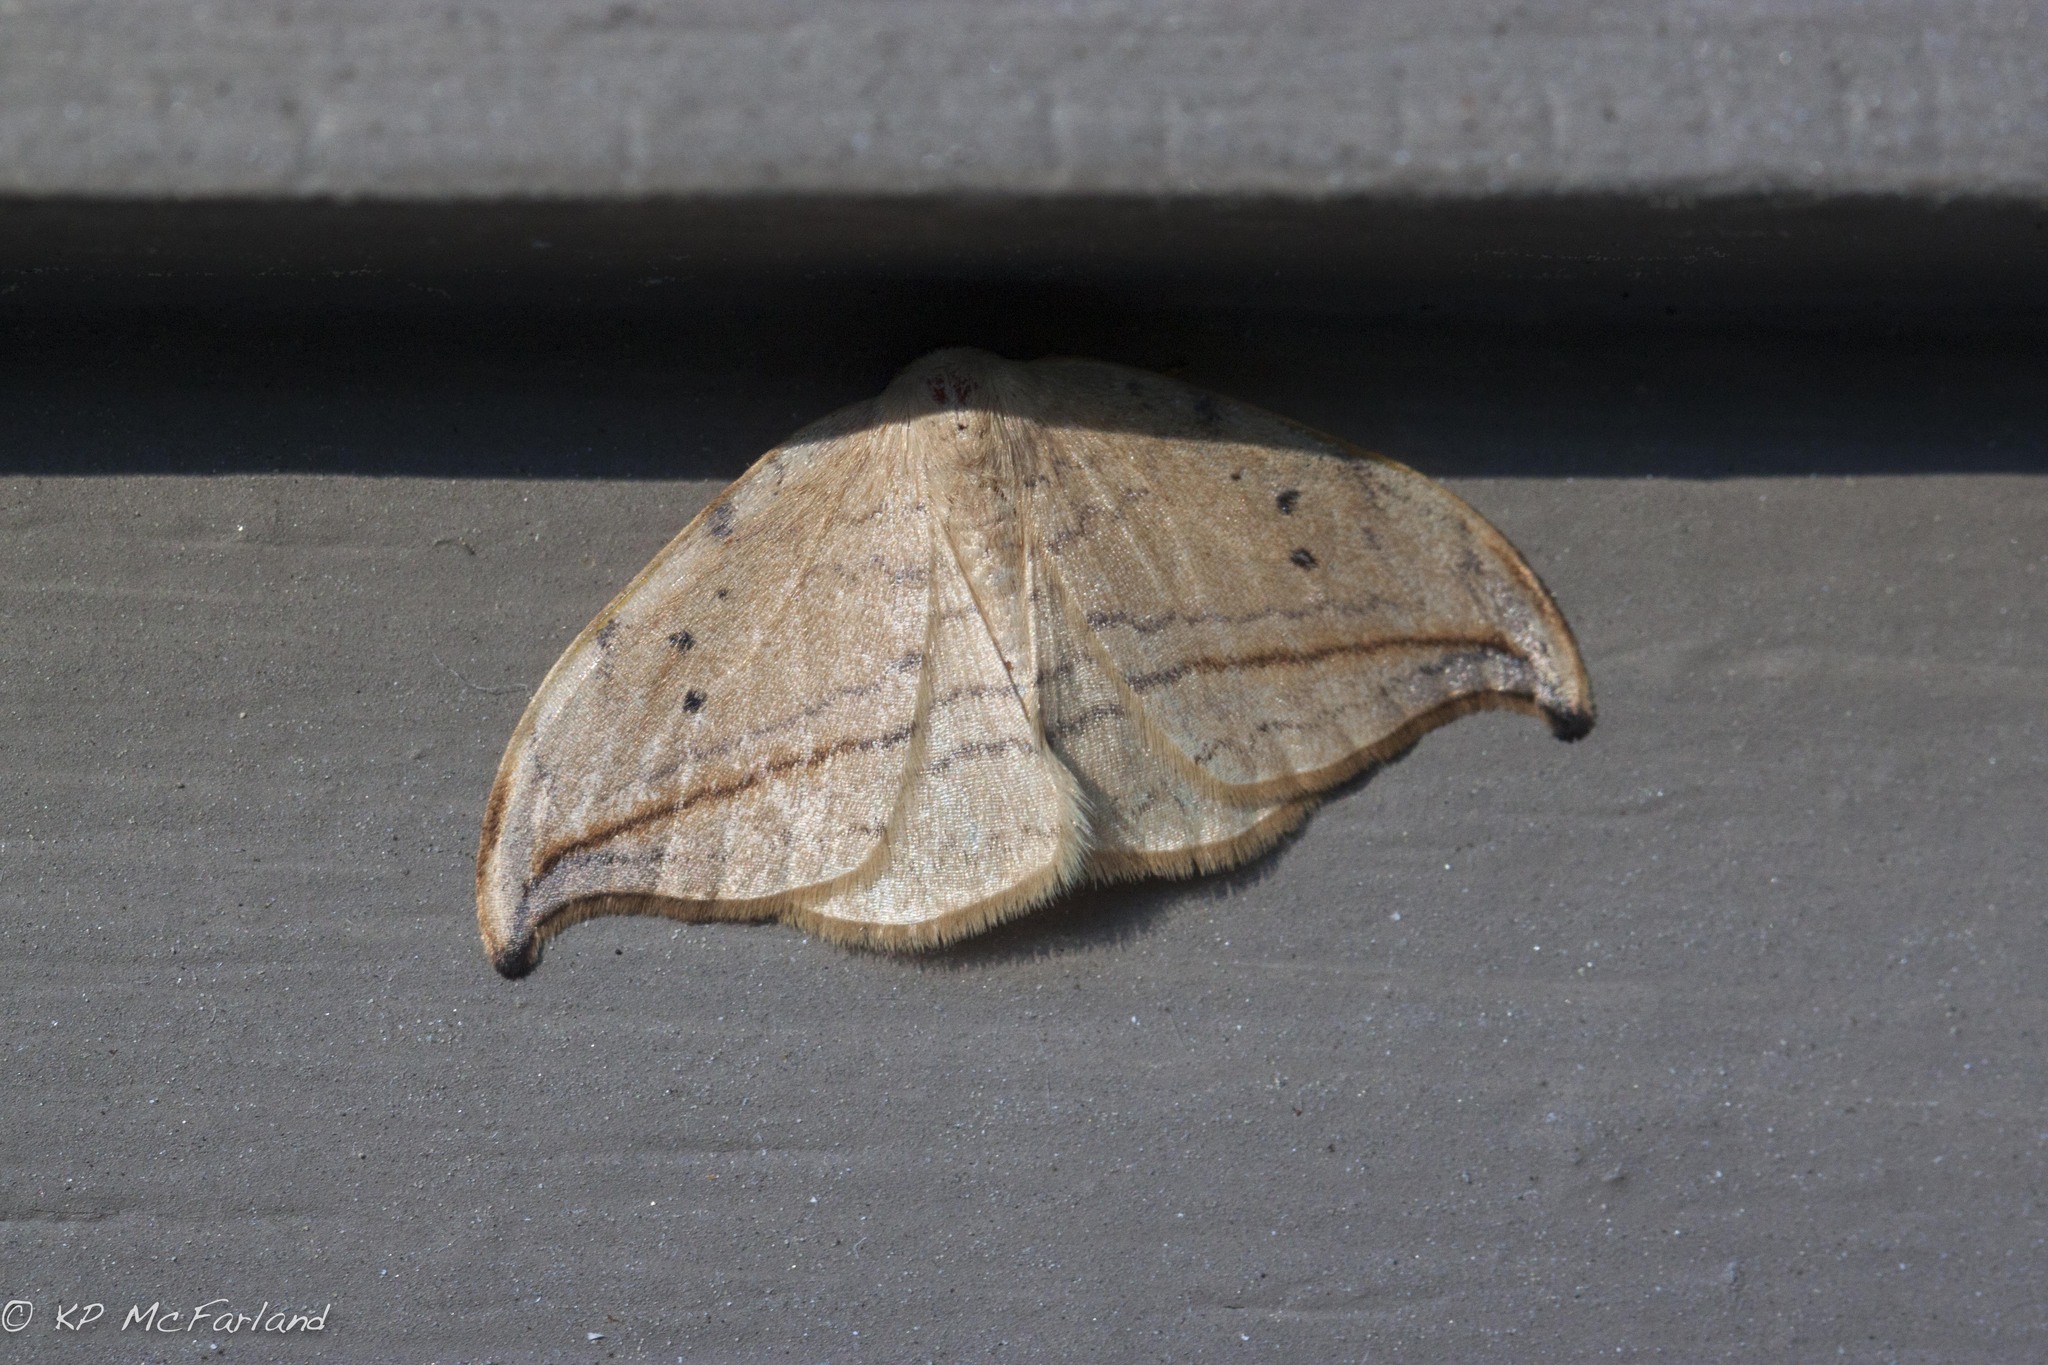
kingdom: Animalia
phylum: Arthropoda
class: Insecta
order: Lepidoptera
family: Drepanidae
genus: Drepana
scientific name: Drepana arcuata
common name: Arched hooktip moth
